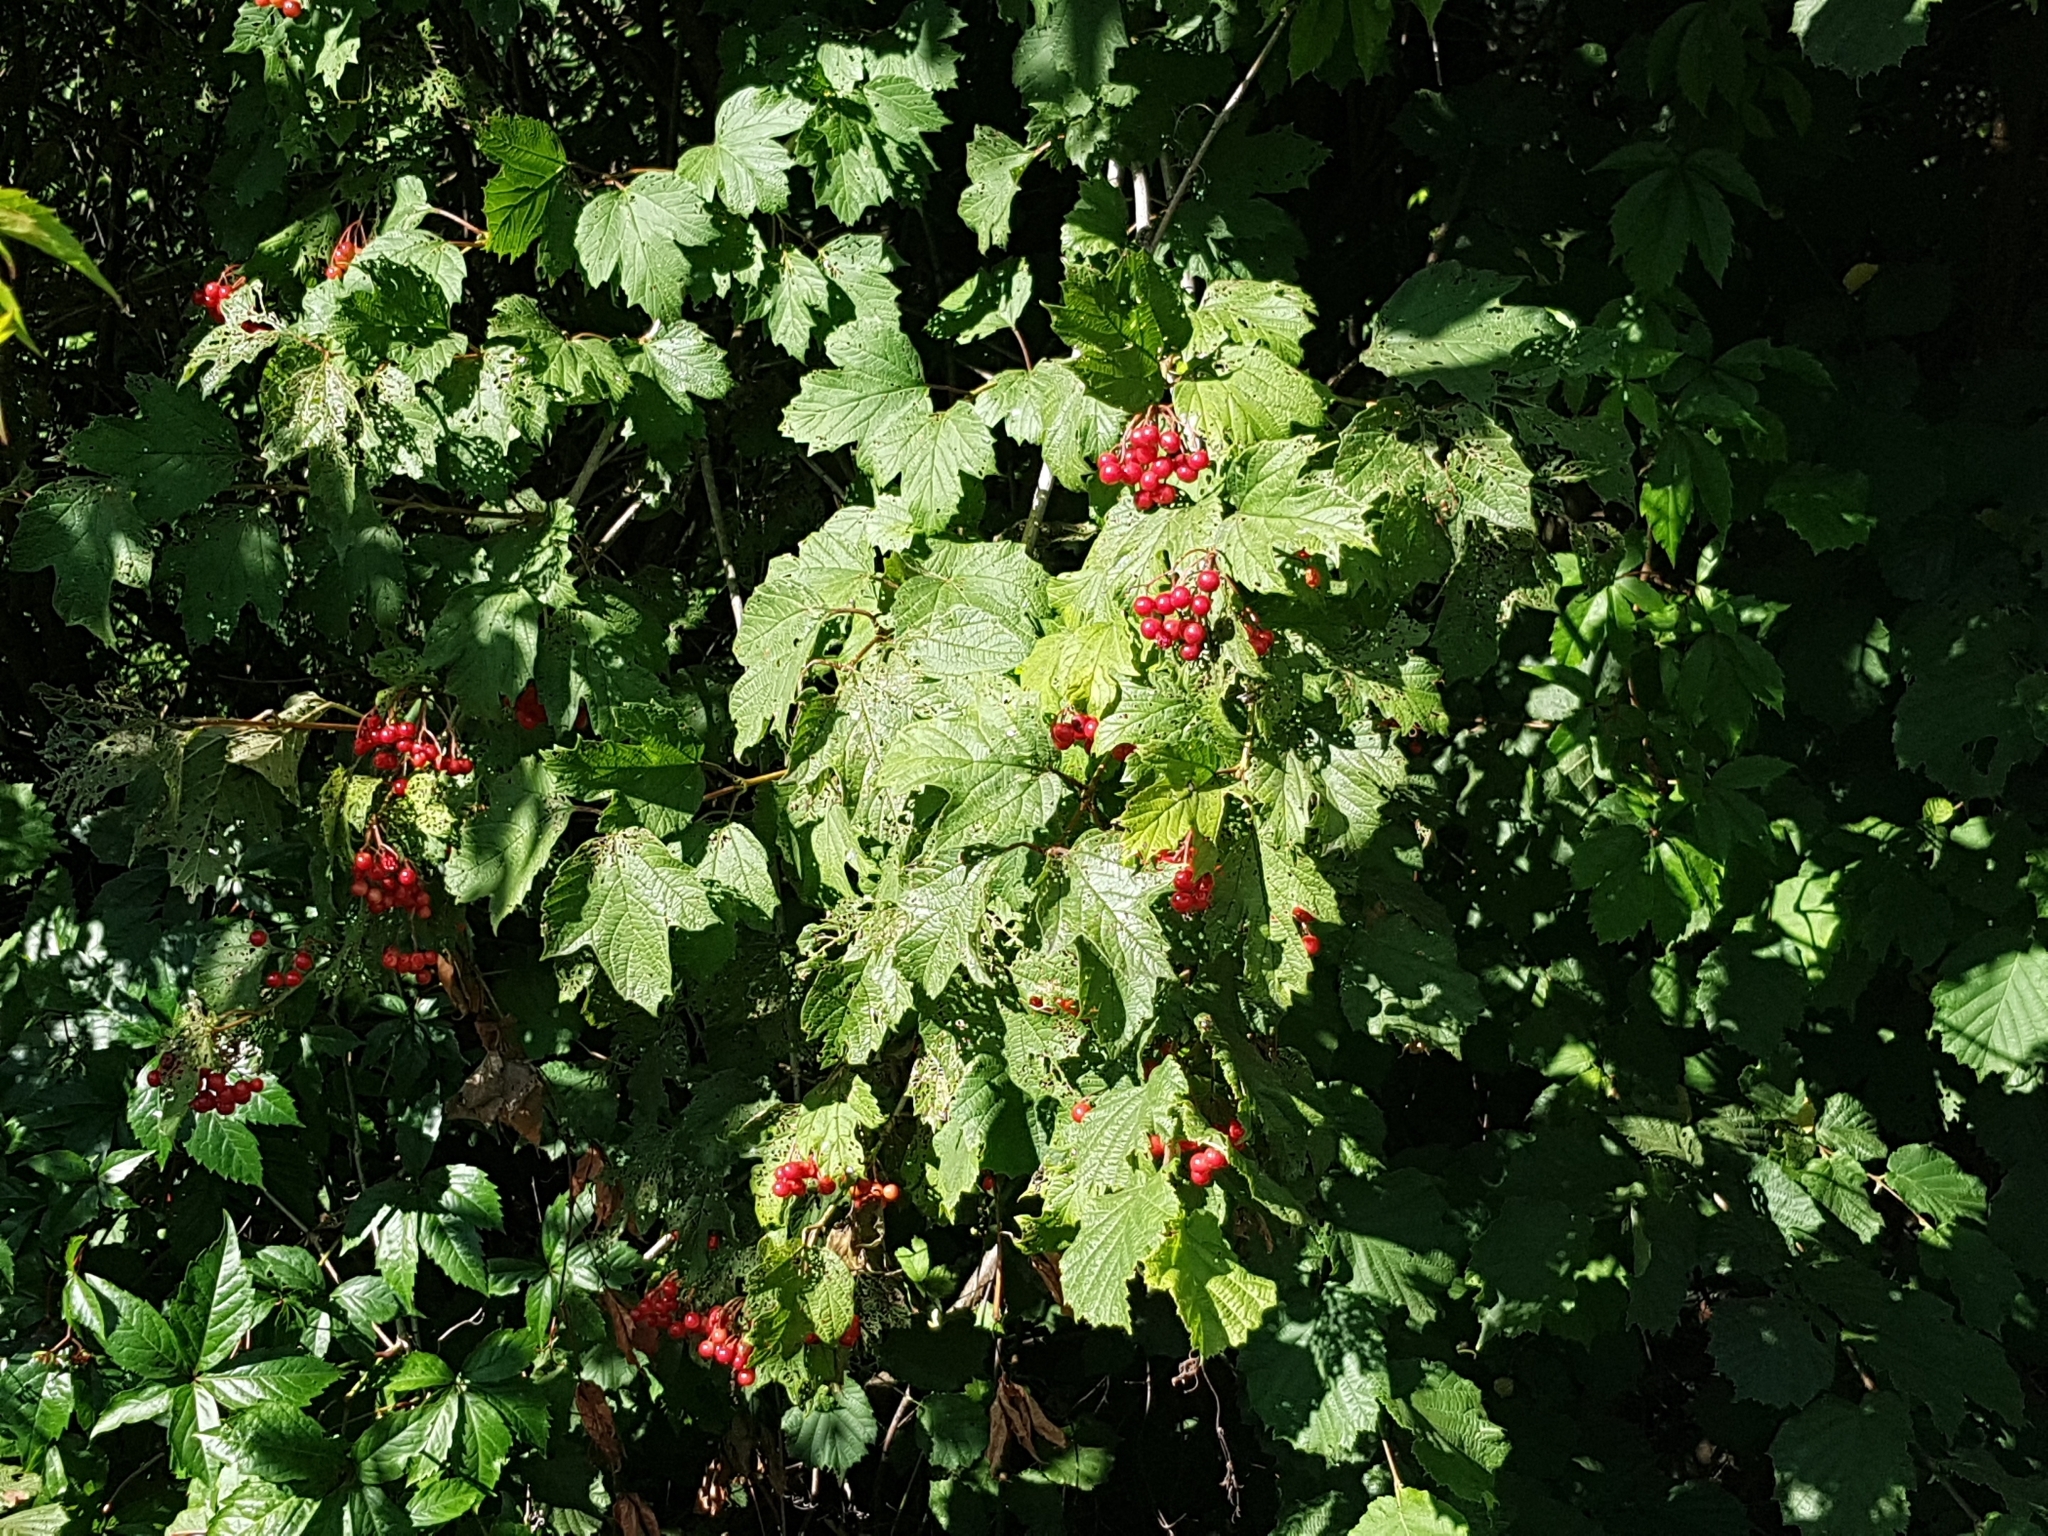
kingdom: Plantae
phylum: Tracheophyta
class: Magnoliopsida
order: Dipsacales
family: Viburnaceae
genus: Viburnum
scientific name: Viburnum opulus
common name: Guelder-rose
